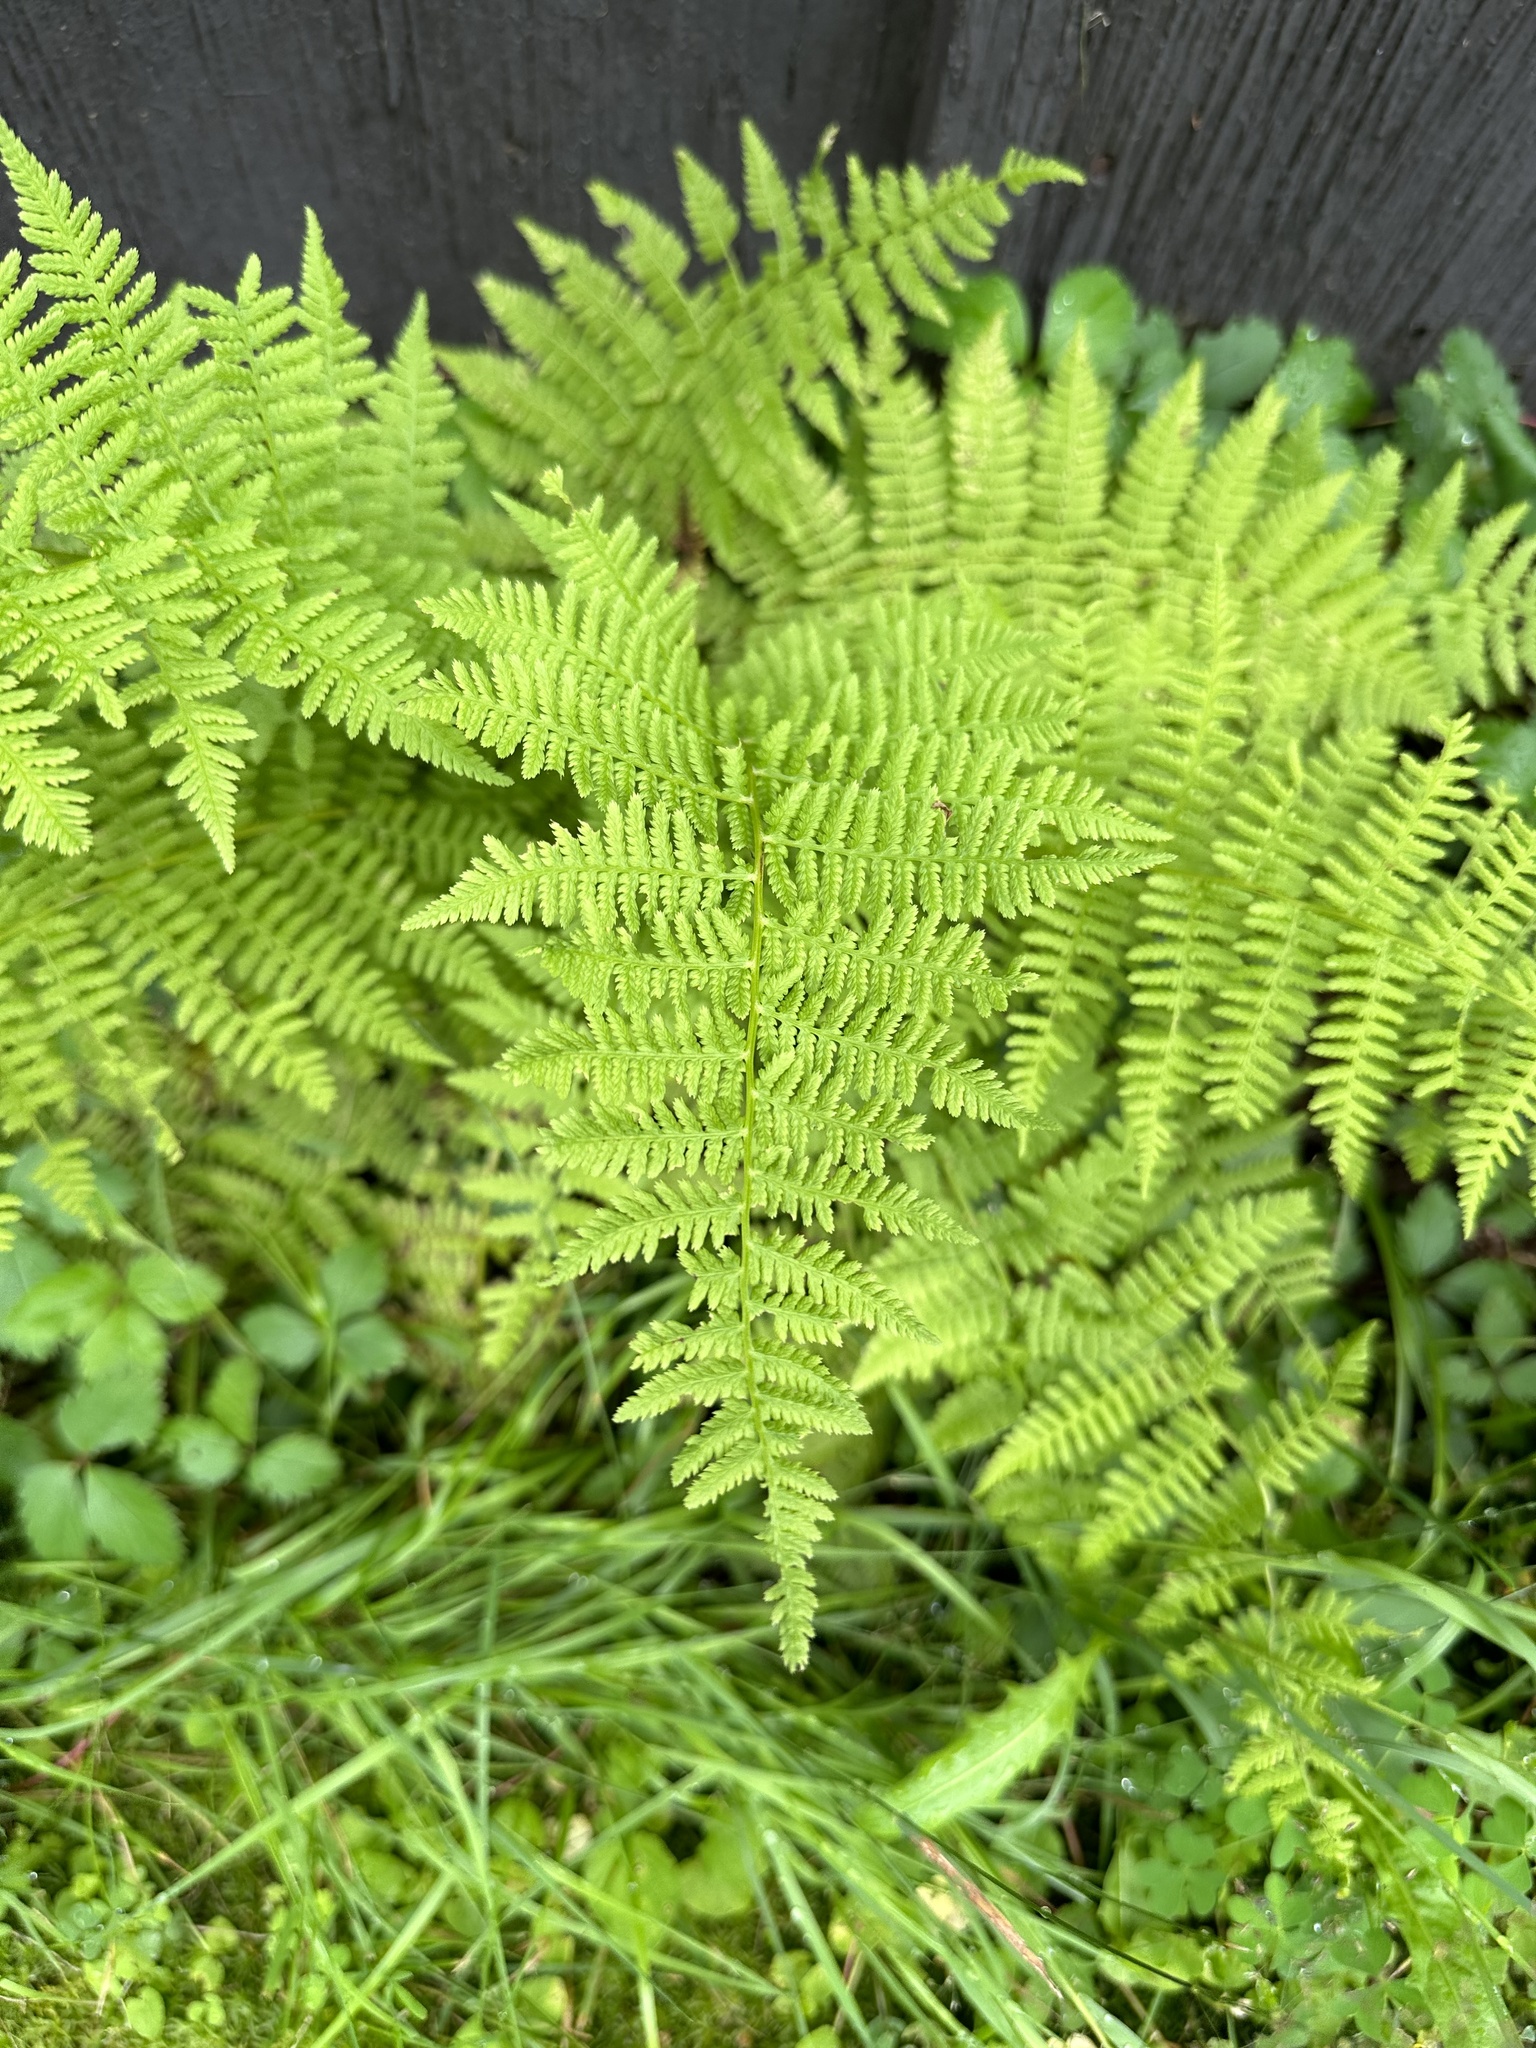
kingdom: Plantae
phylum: Tracheophyta
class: Polypodiopsida
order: Polypodiales
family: Athyriaceae
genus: Athyrium
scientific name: Athyrium angustum
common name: Northern lady fern
